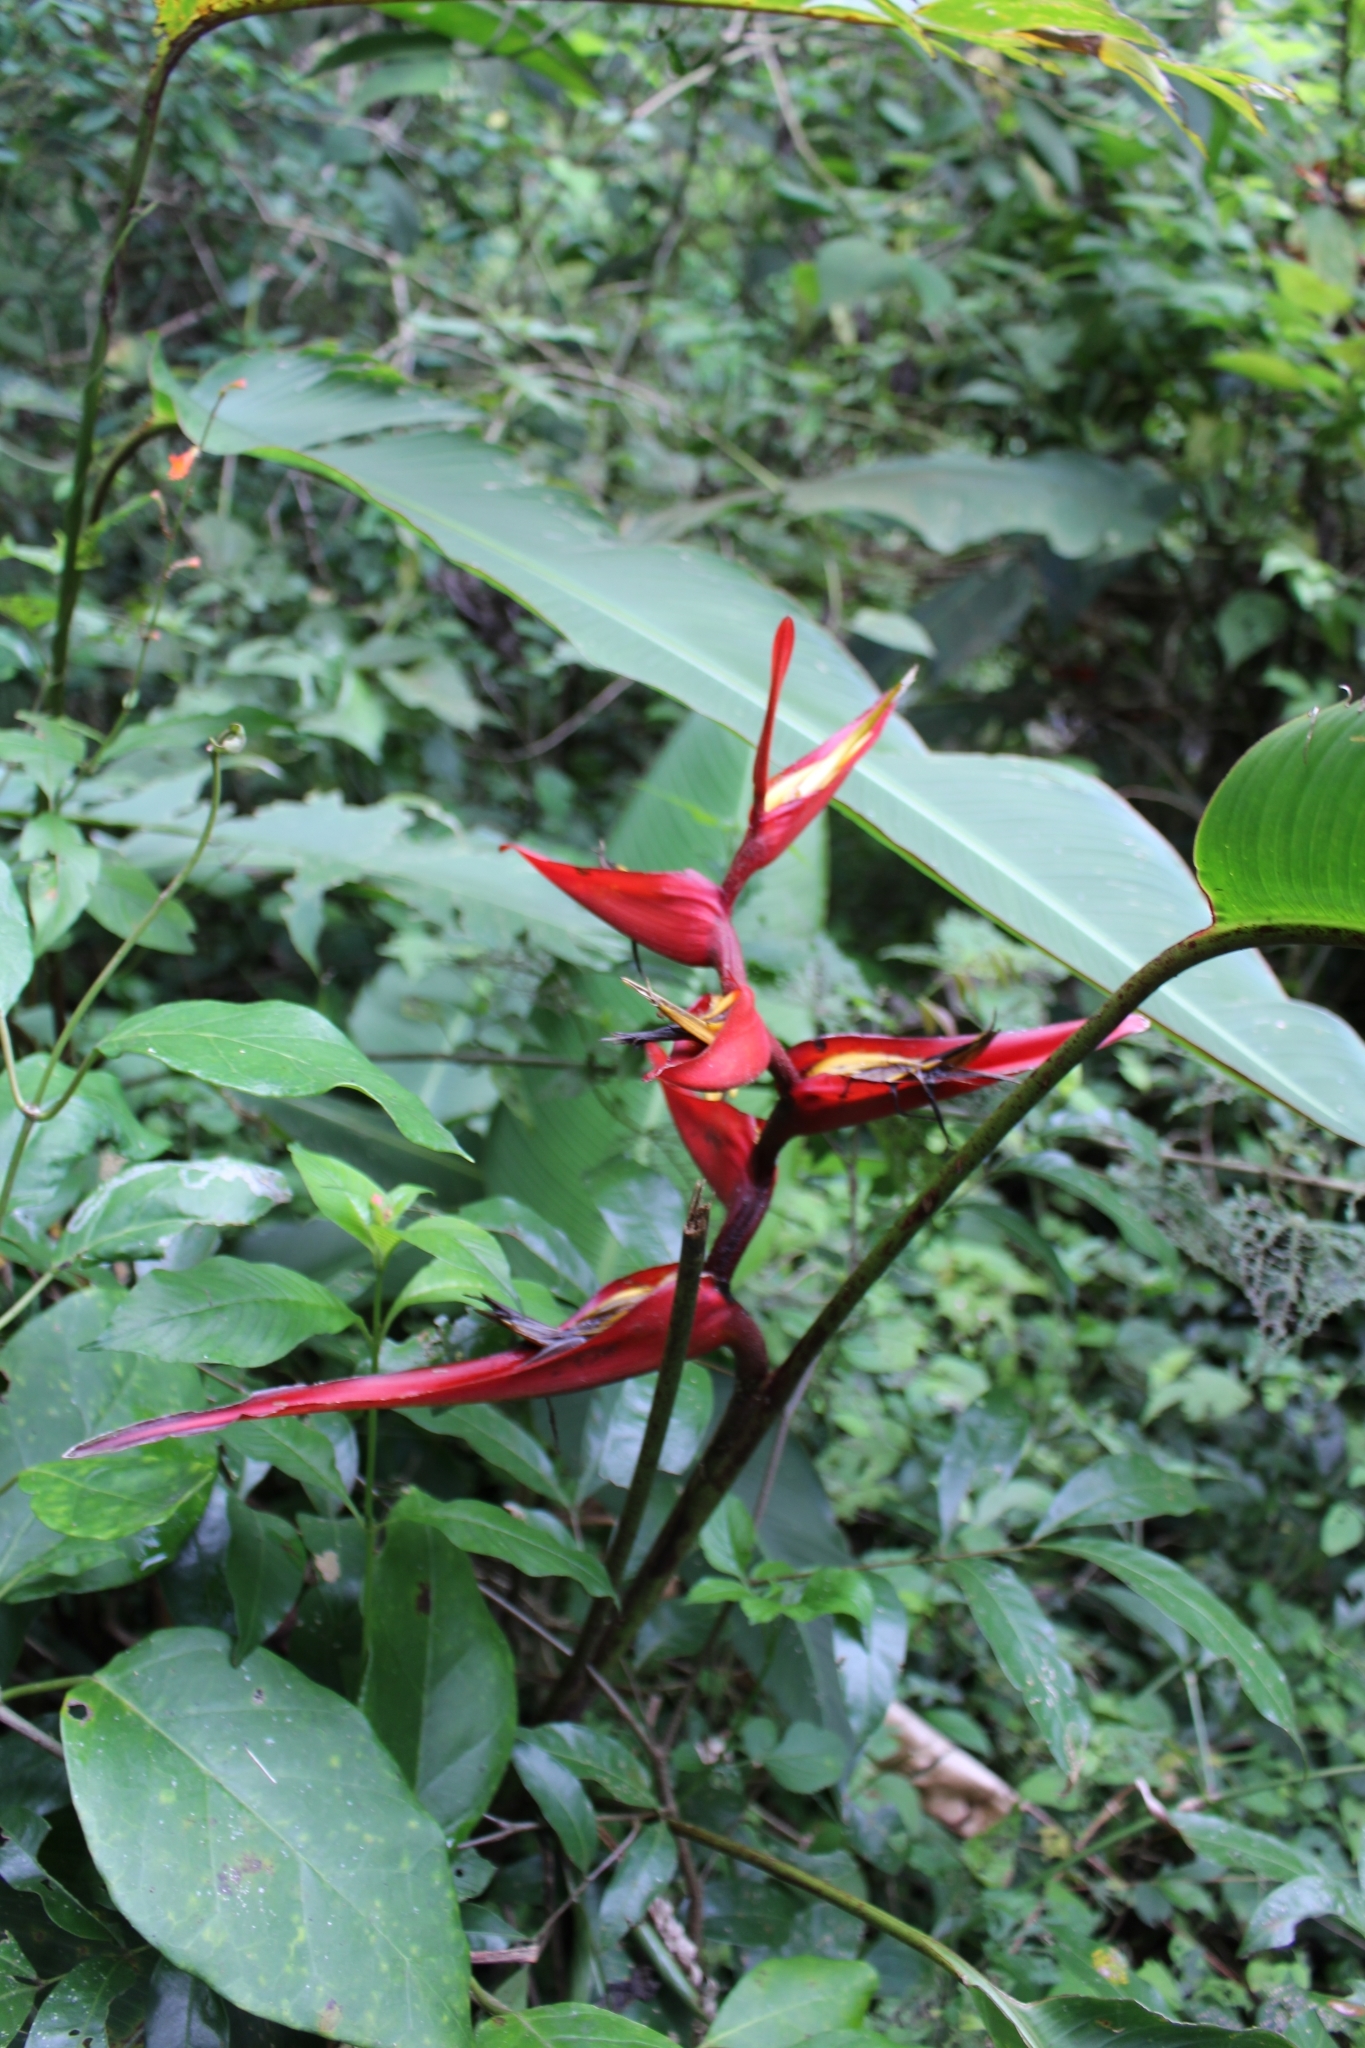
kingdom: Plantae
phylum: Tracheophyta
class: Liliopsida
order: Zingiberales
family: Heliconiaceae
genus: Heliconia
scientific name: Heliconia tortuosa
